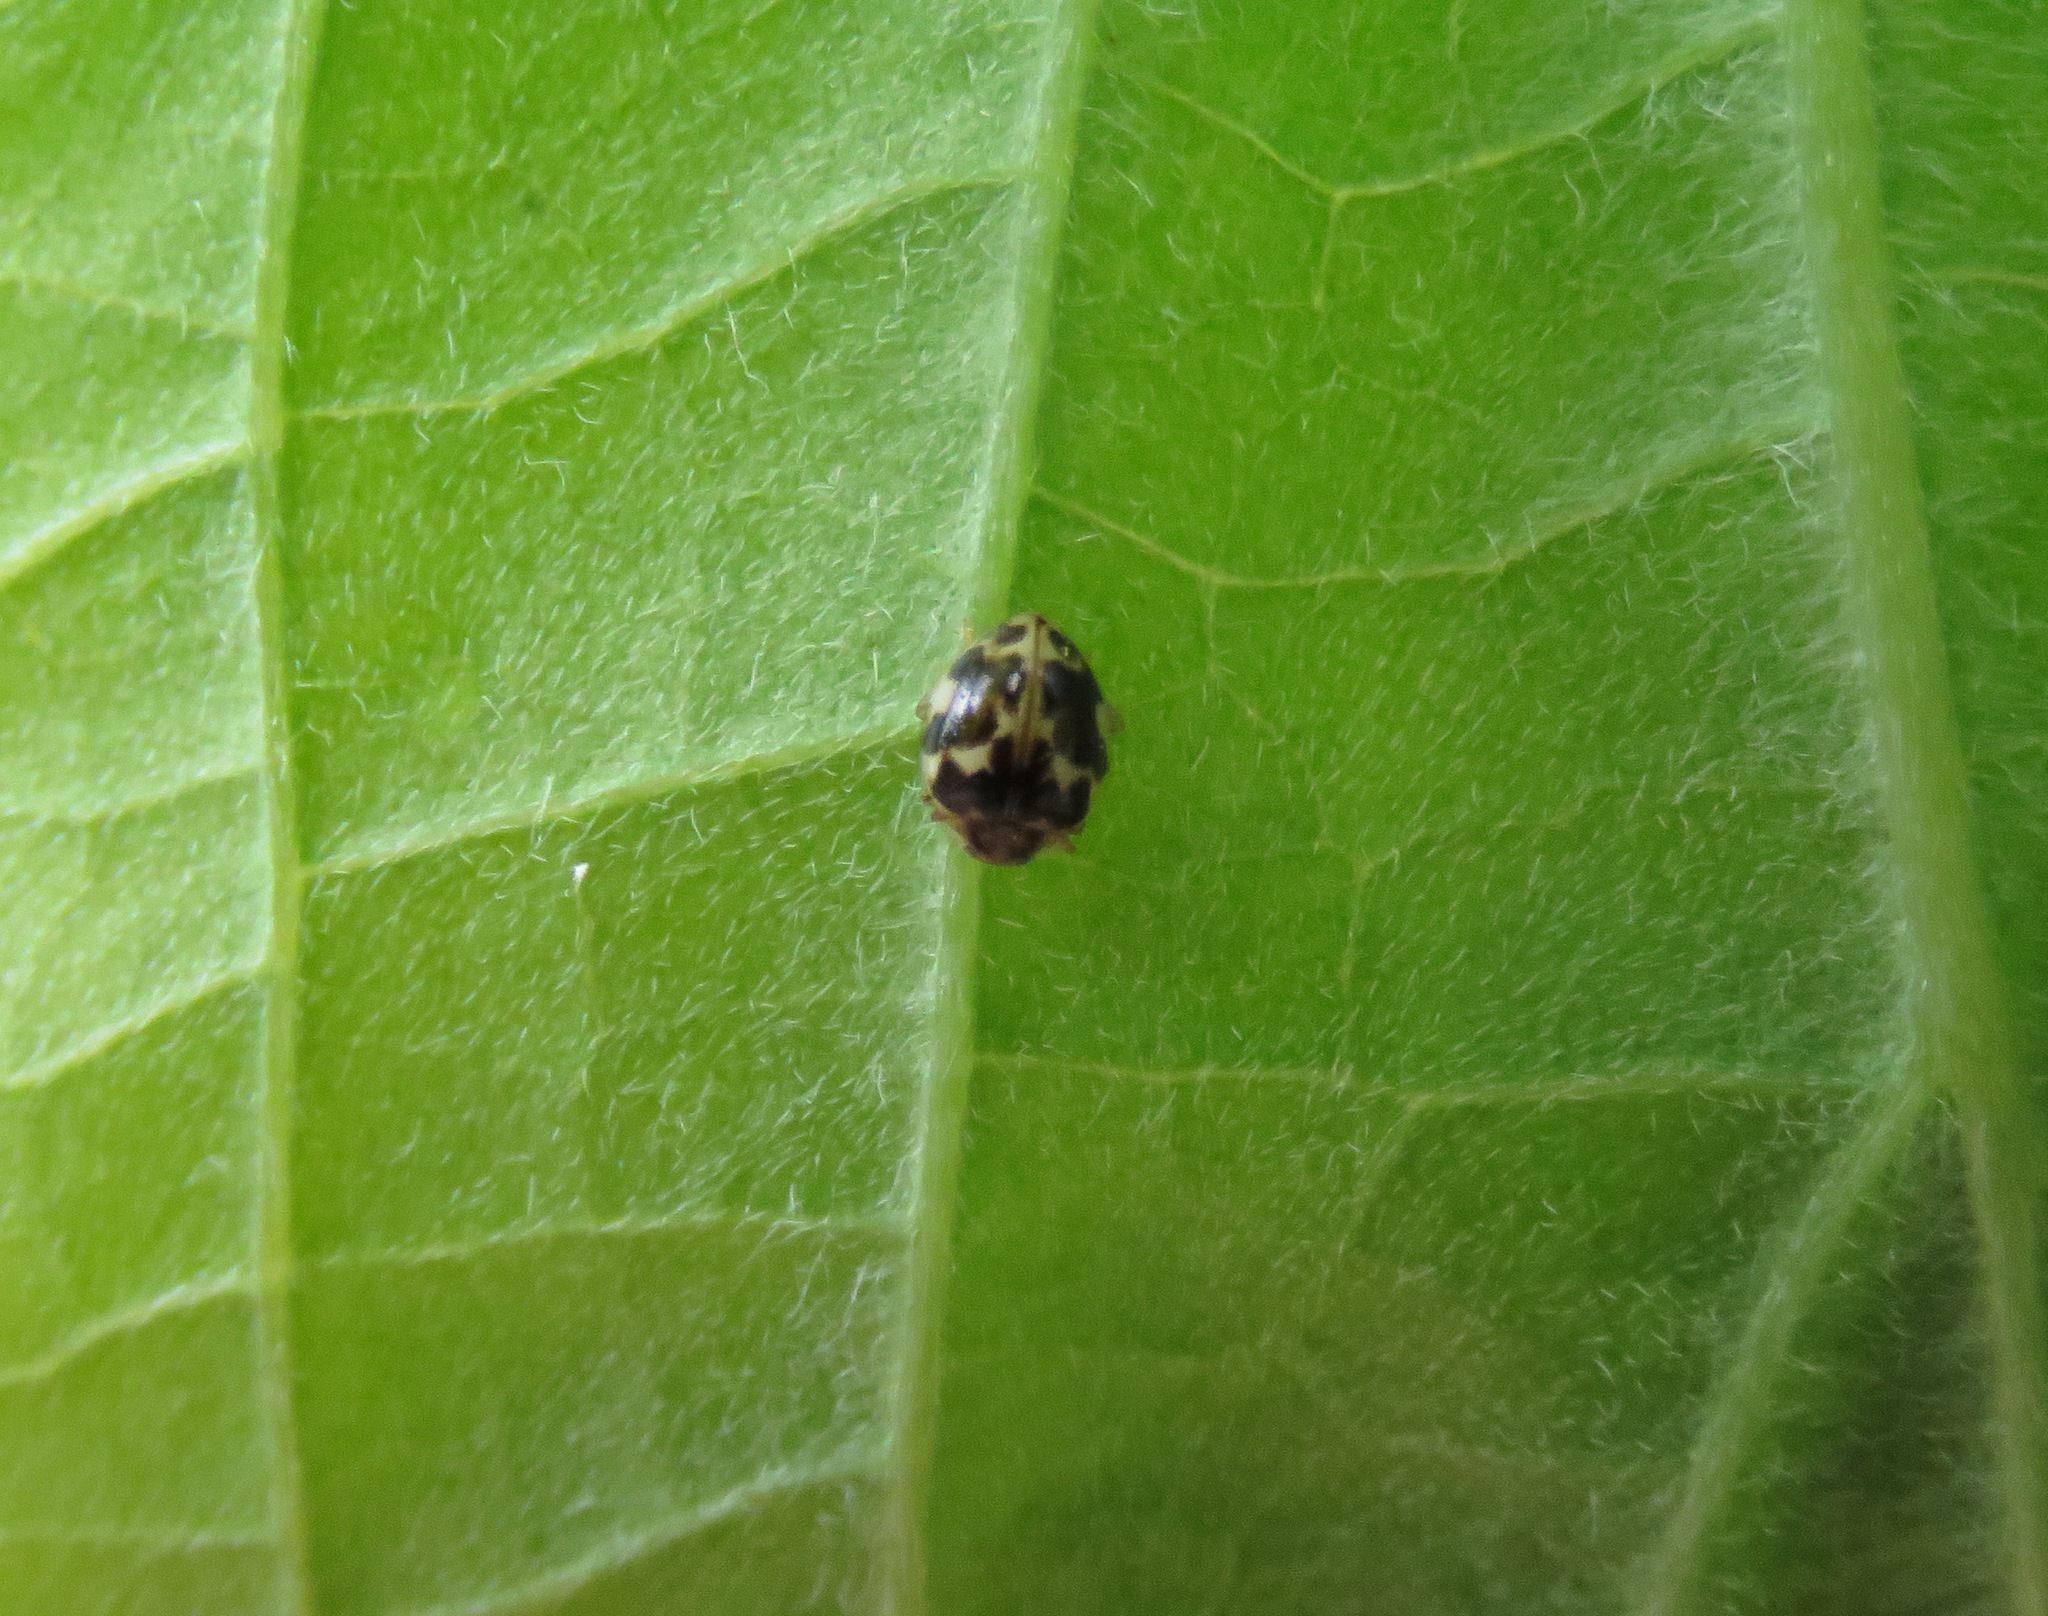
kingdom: Animalia
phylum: Arthropoda
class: Insecta
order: Coleoptera
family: Coccinellidae
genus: Psyllobora
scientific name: Psyllobora vigintimaculata
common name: Ladybird beetle
